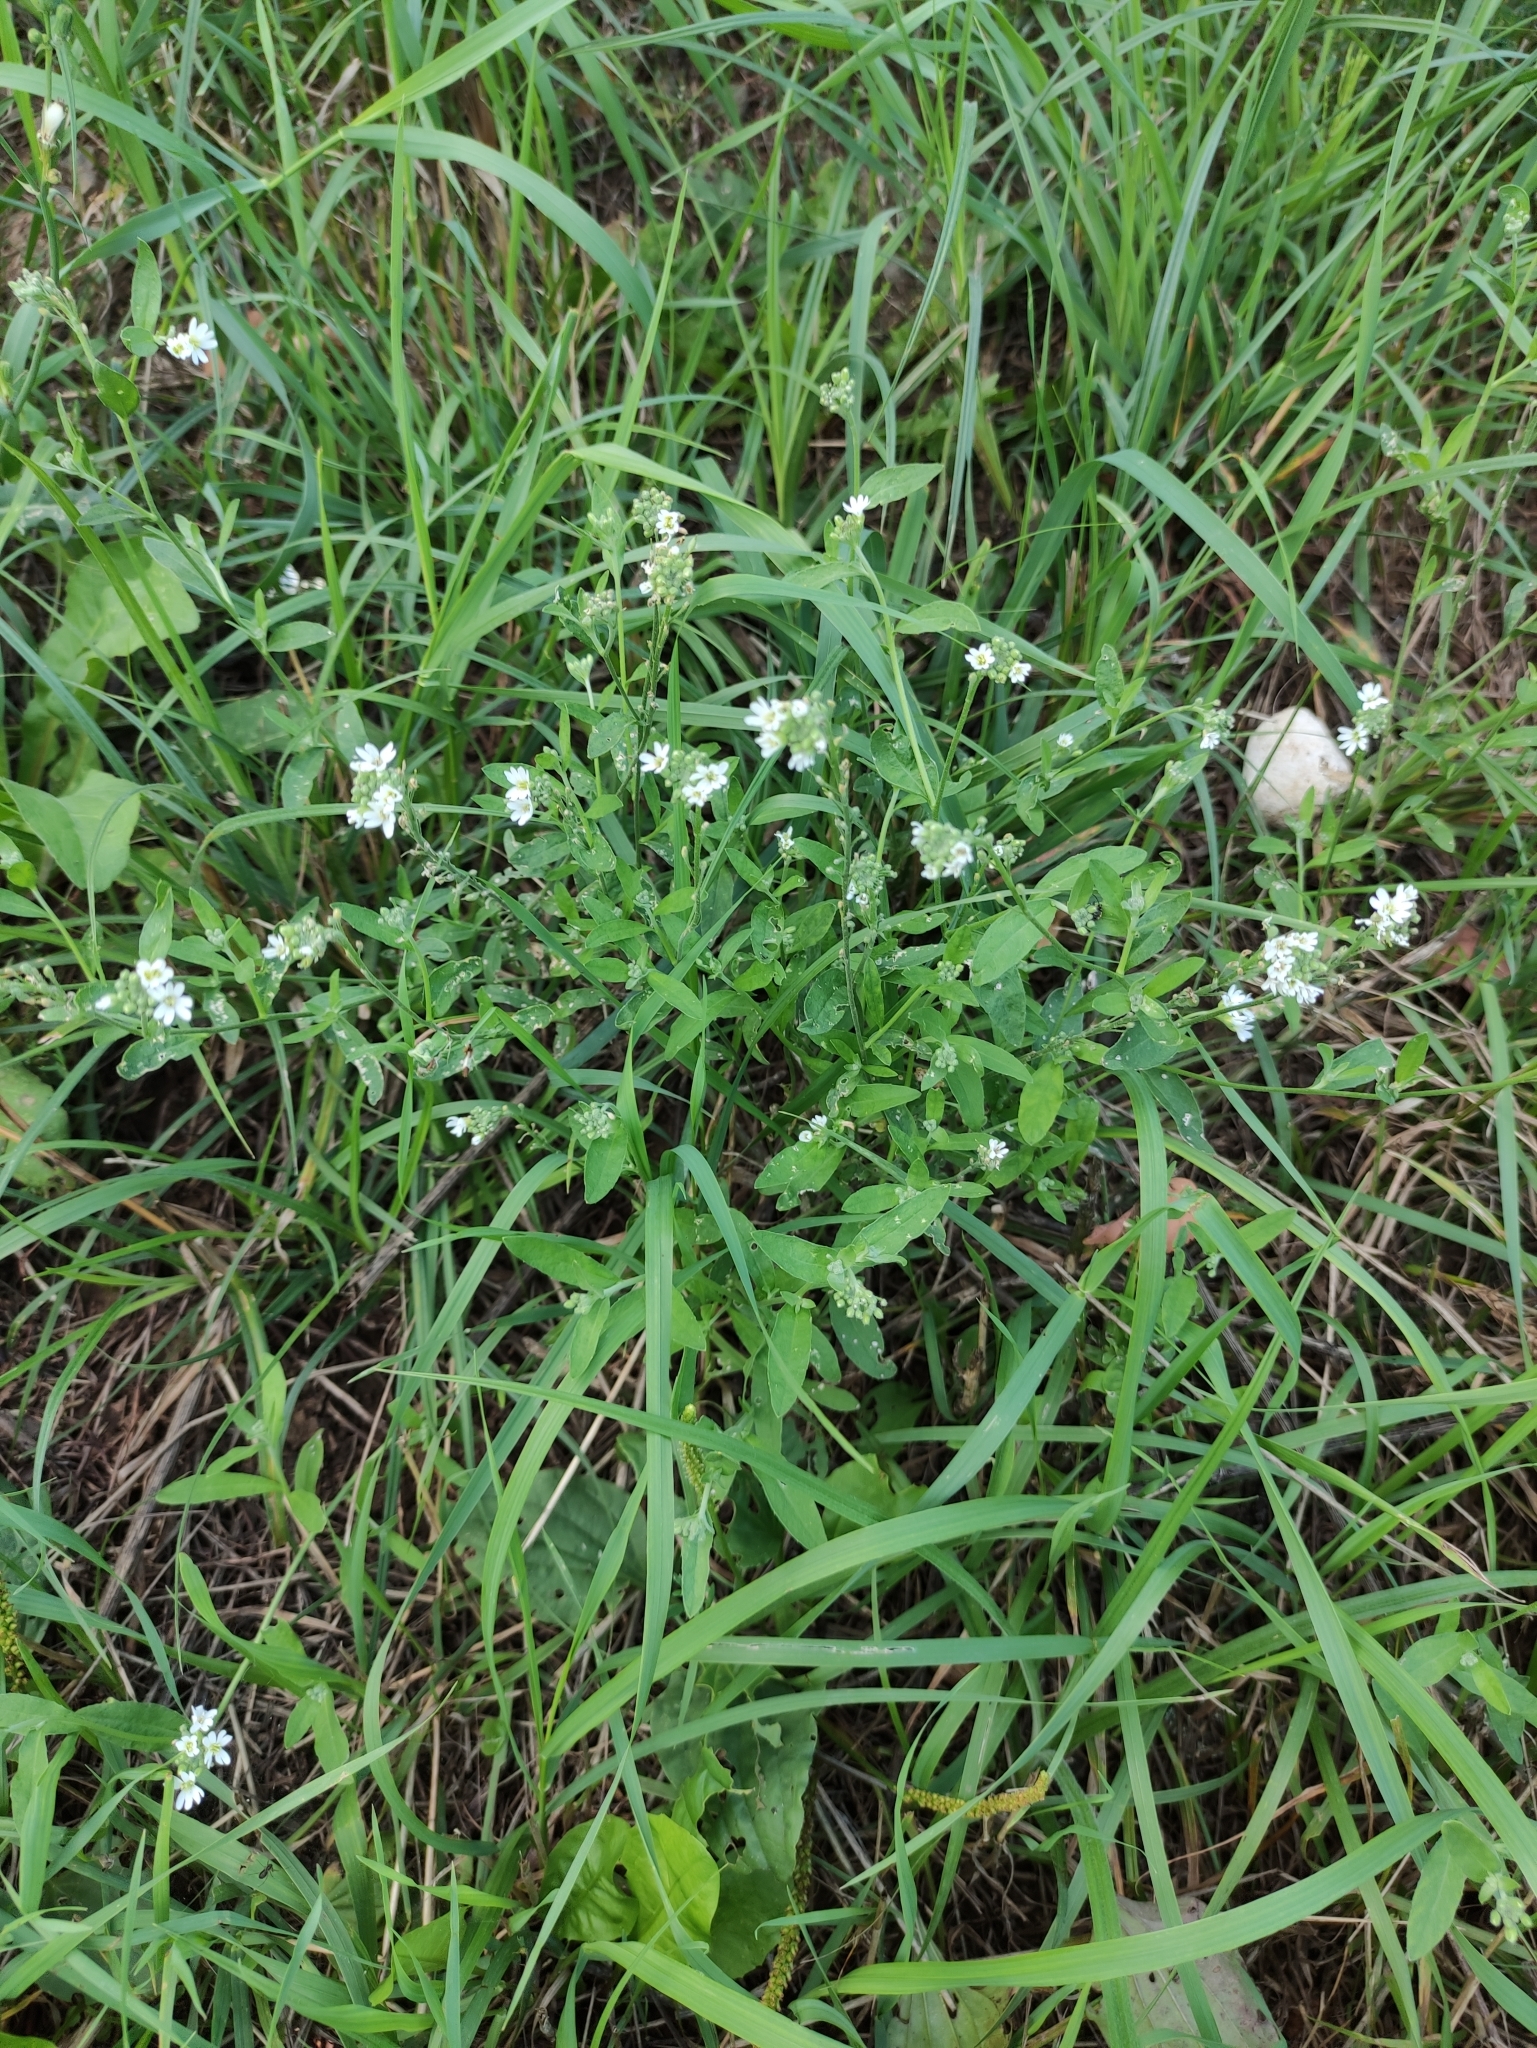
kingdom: Plantae
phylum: Tracheophyta
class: Magnoliopsida
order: Brassicales
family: Brassicaceae
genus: Berteroa
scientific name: Berteroa incana
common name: Hoary alison
